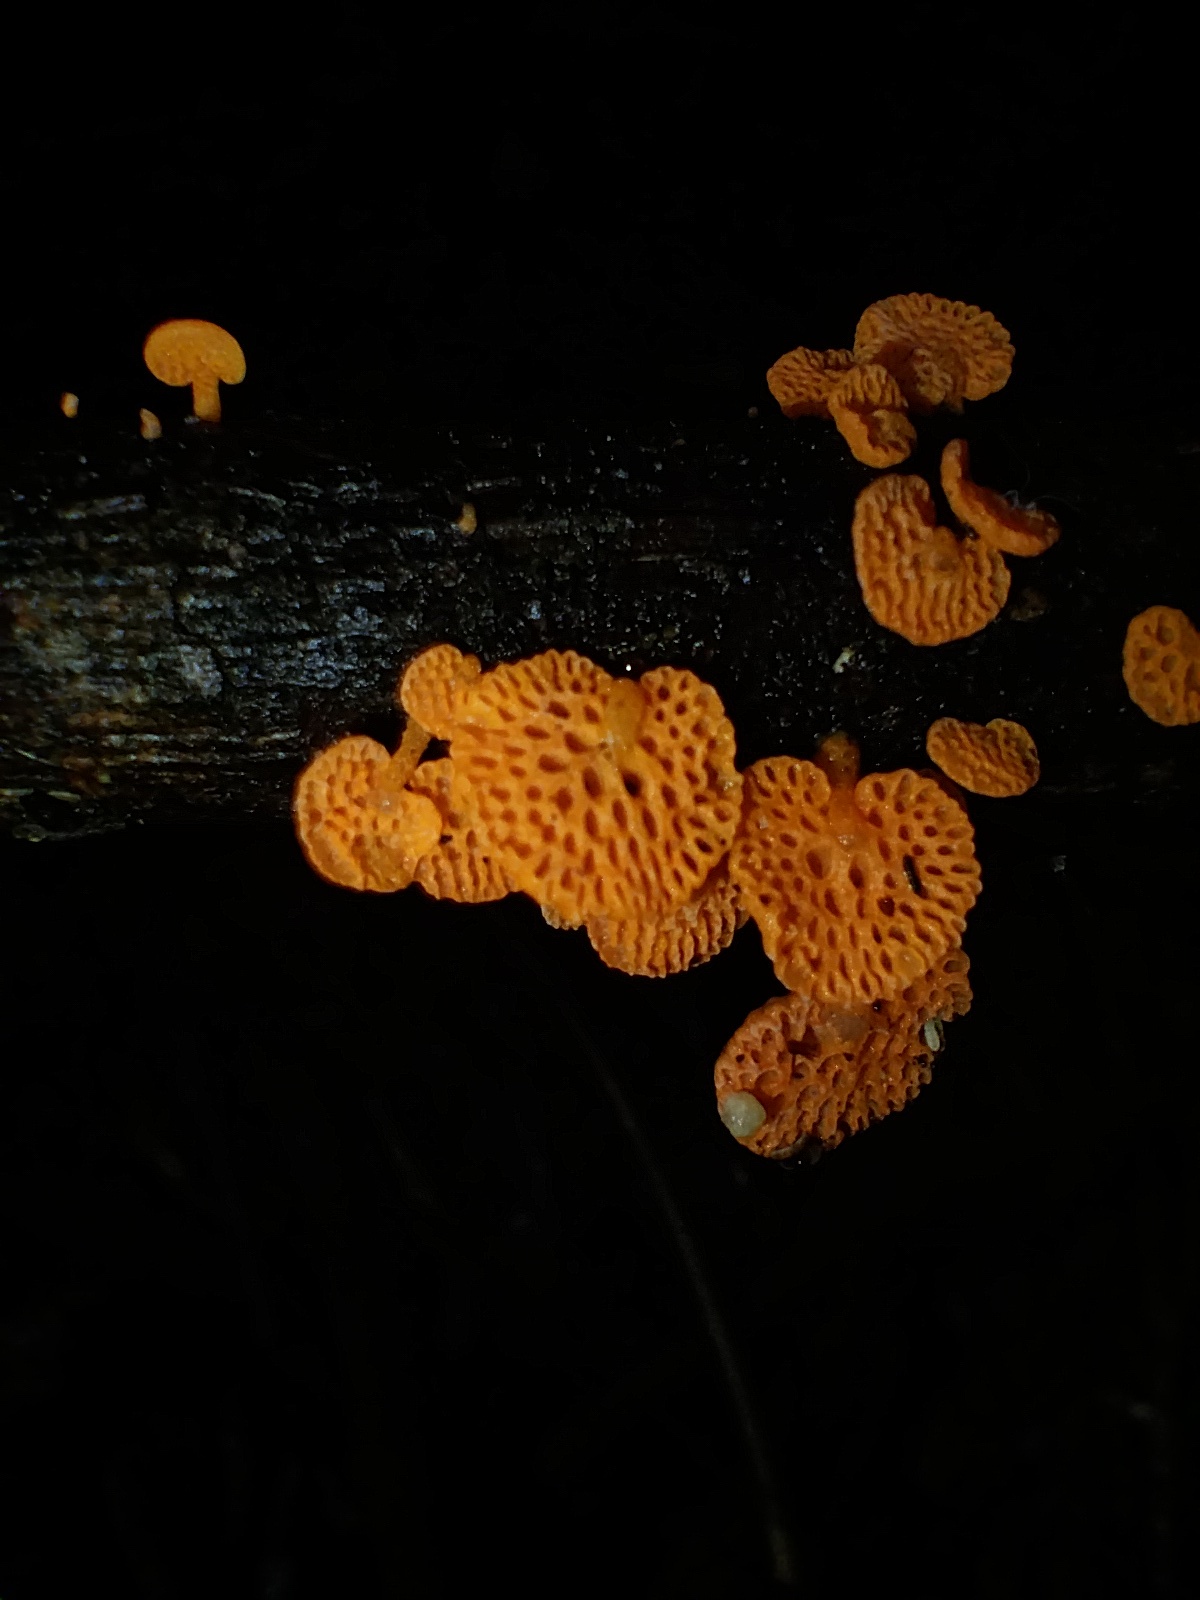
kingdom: Fungi
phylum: Basidiomycota
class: Agaricomycetes
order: Agaricales
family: Mycenaceae
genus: Favolaschia
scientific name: Favolaschia claudopus
